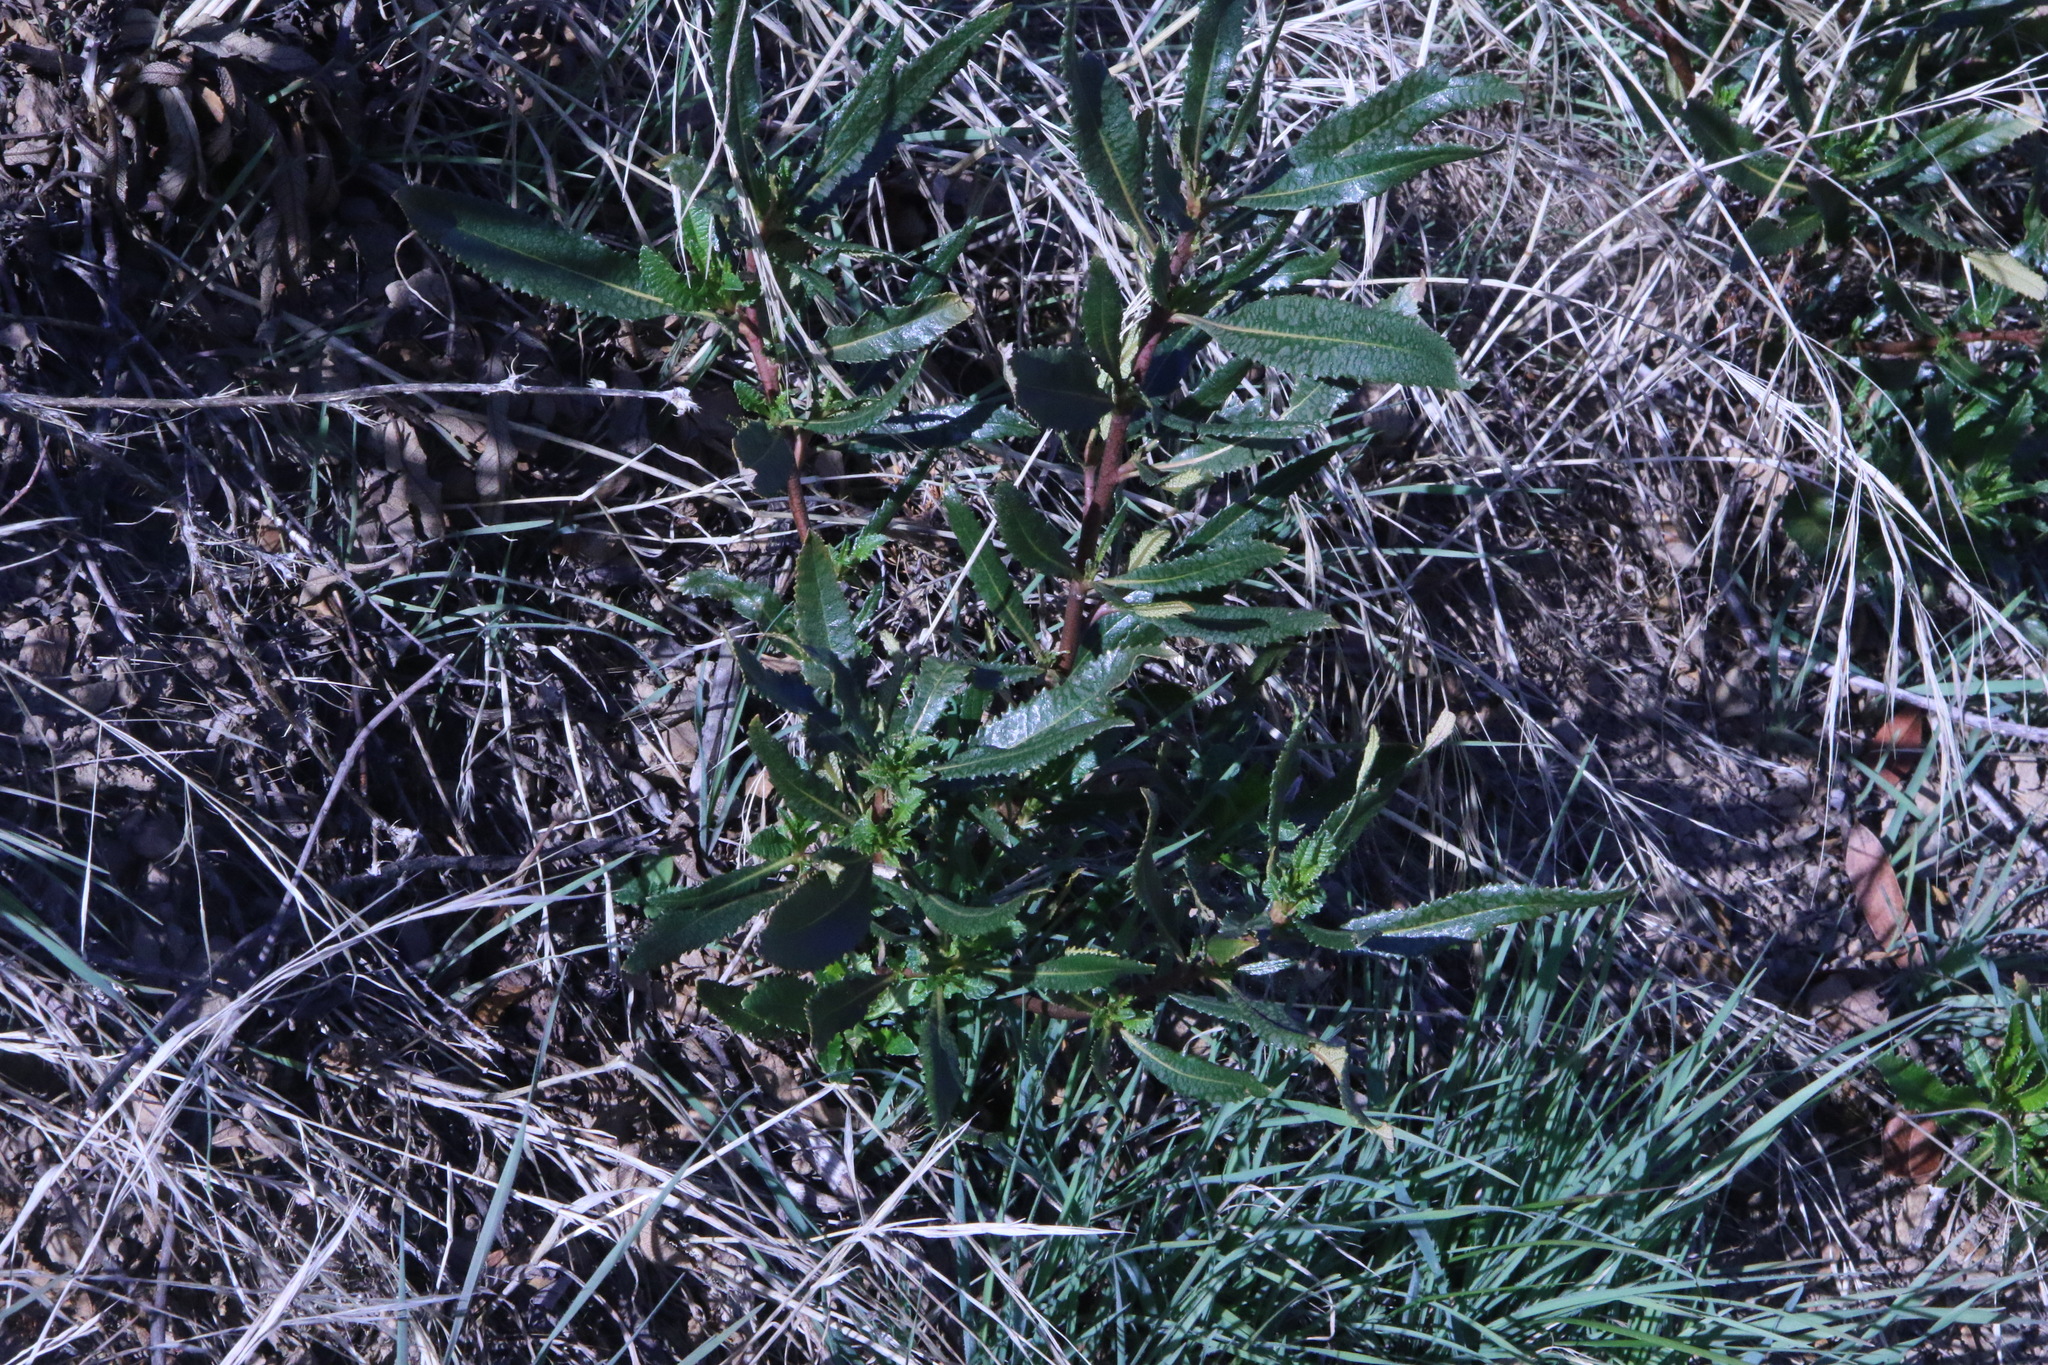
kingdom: Plantae
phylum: Tracheophyta
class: Magnoliopsida
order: Boraginales
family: Namaceae
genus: Eriodictyon
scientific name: Eriodictyon californicum
